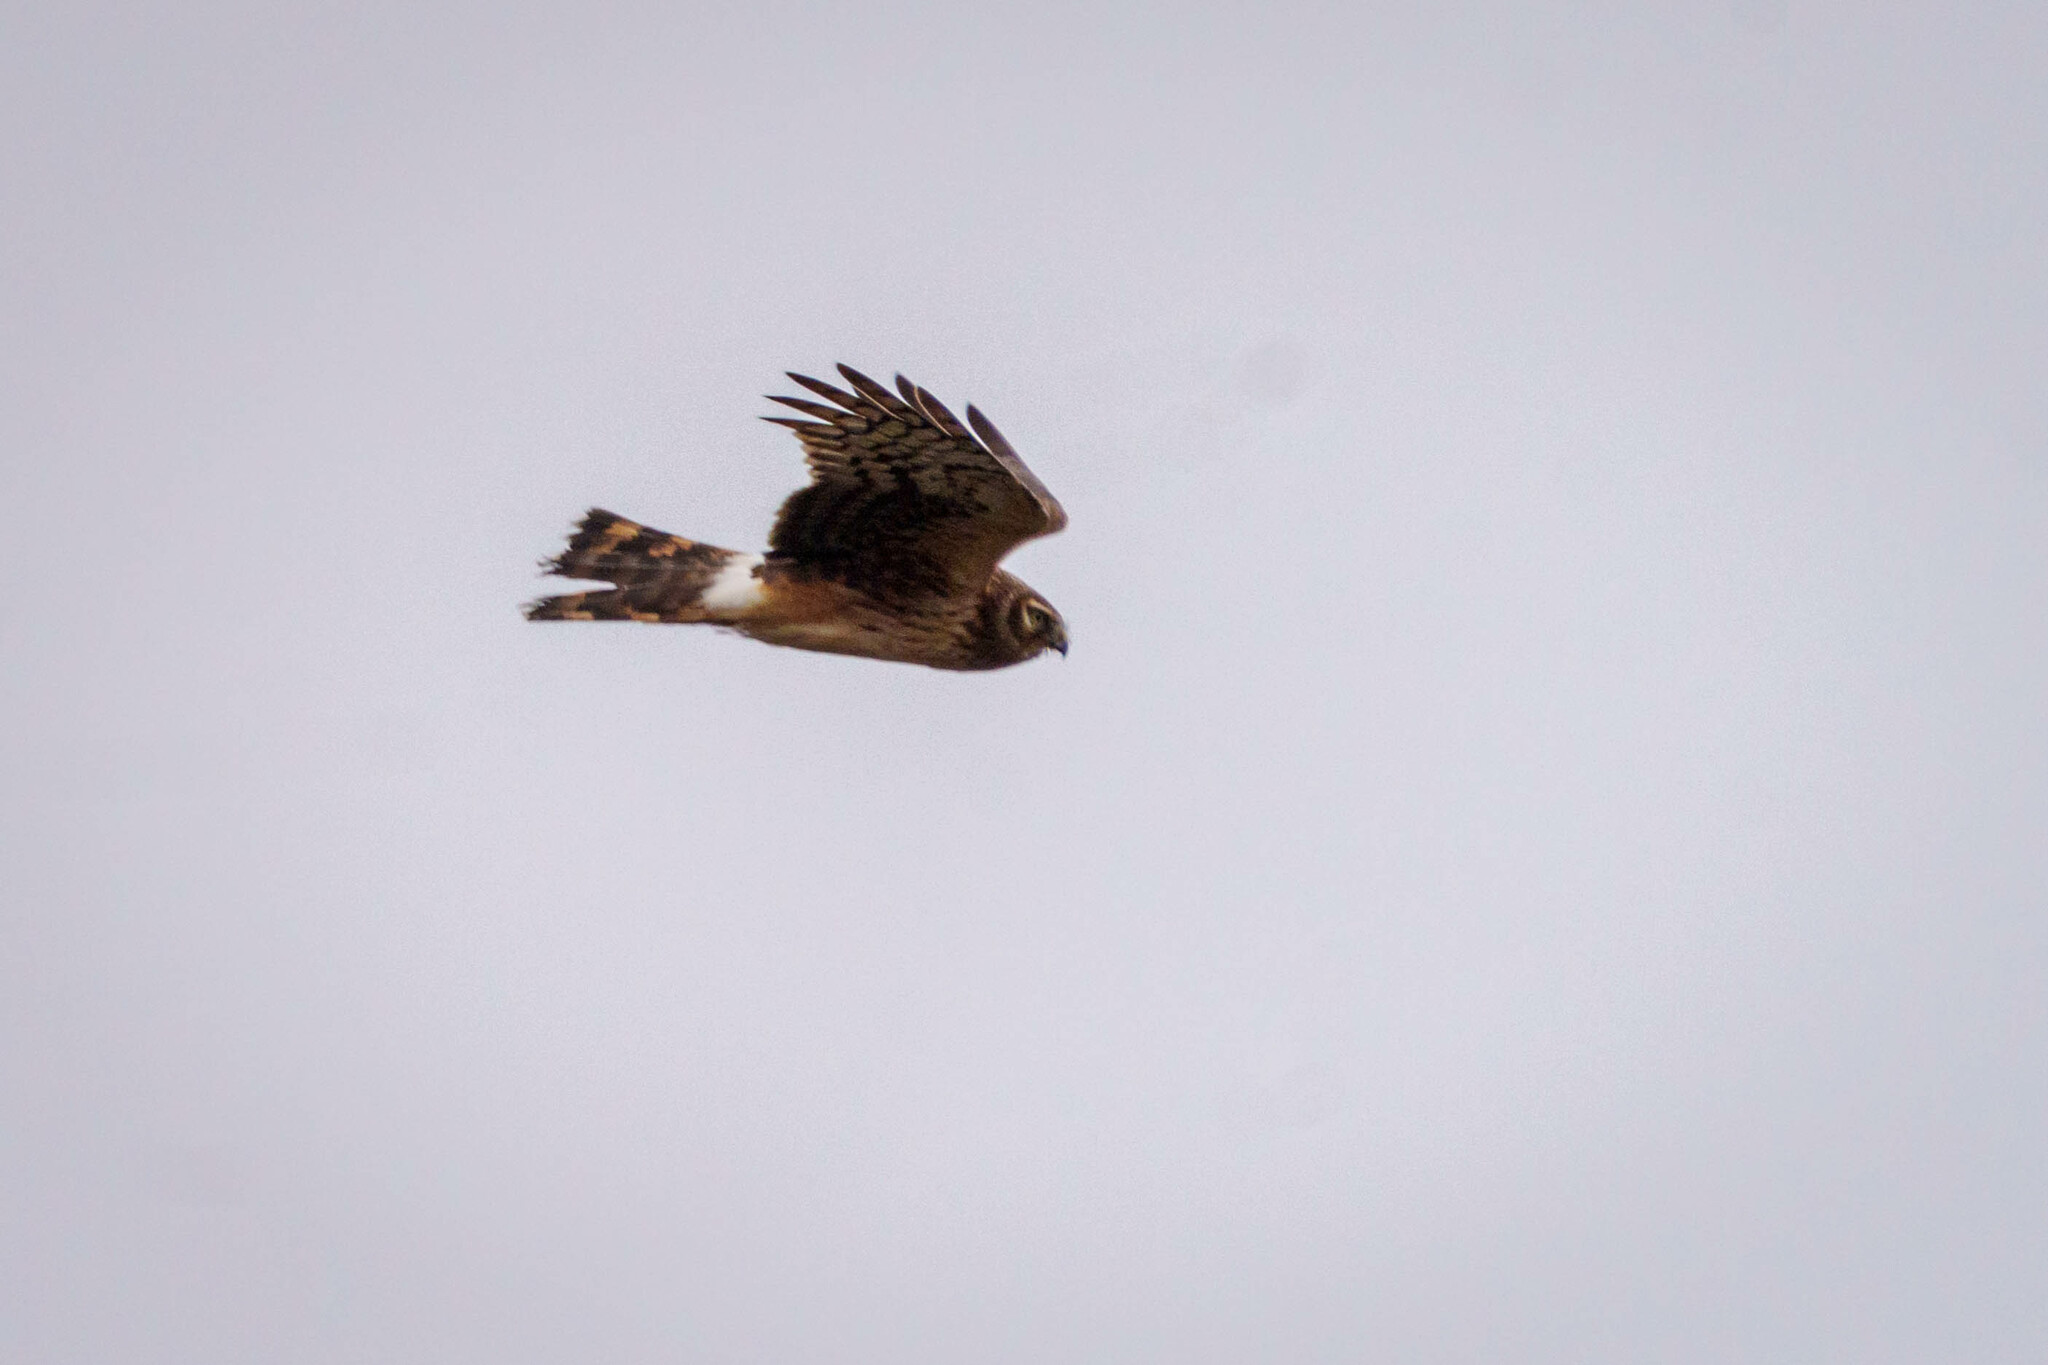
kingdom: Animalia
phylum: Chordata
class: Aves
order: Accipitriformes
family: Accipitridae
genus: Circus
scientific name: Circus cyaneus
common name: Hen harrier
